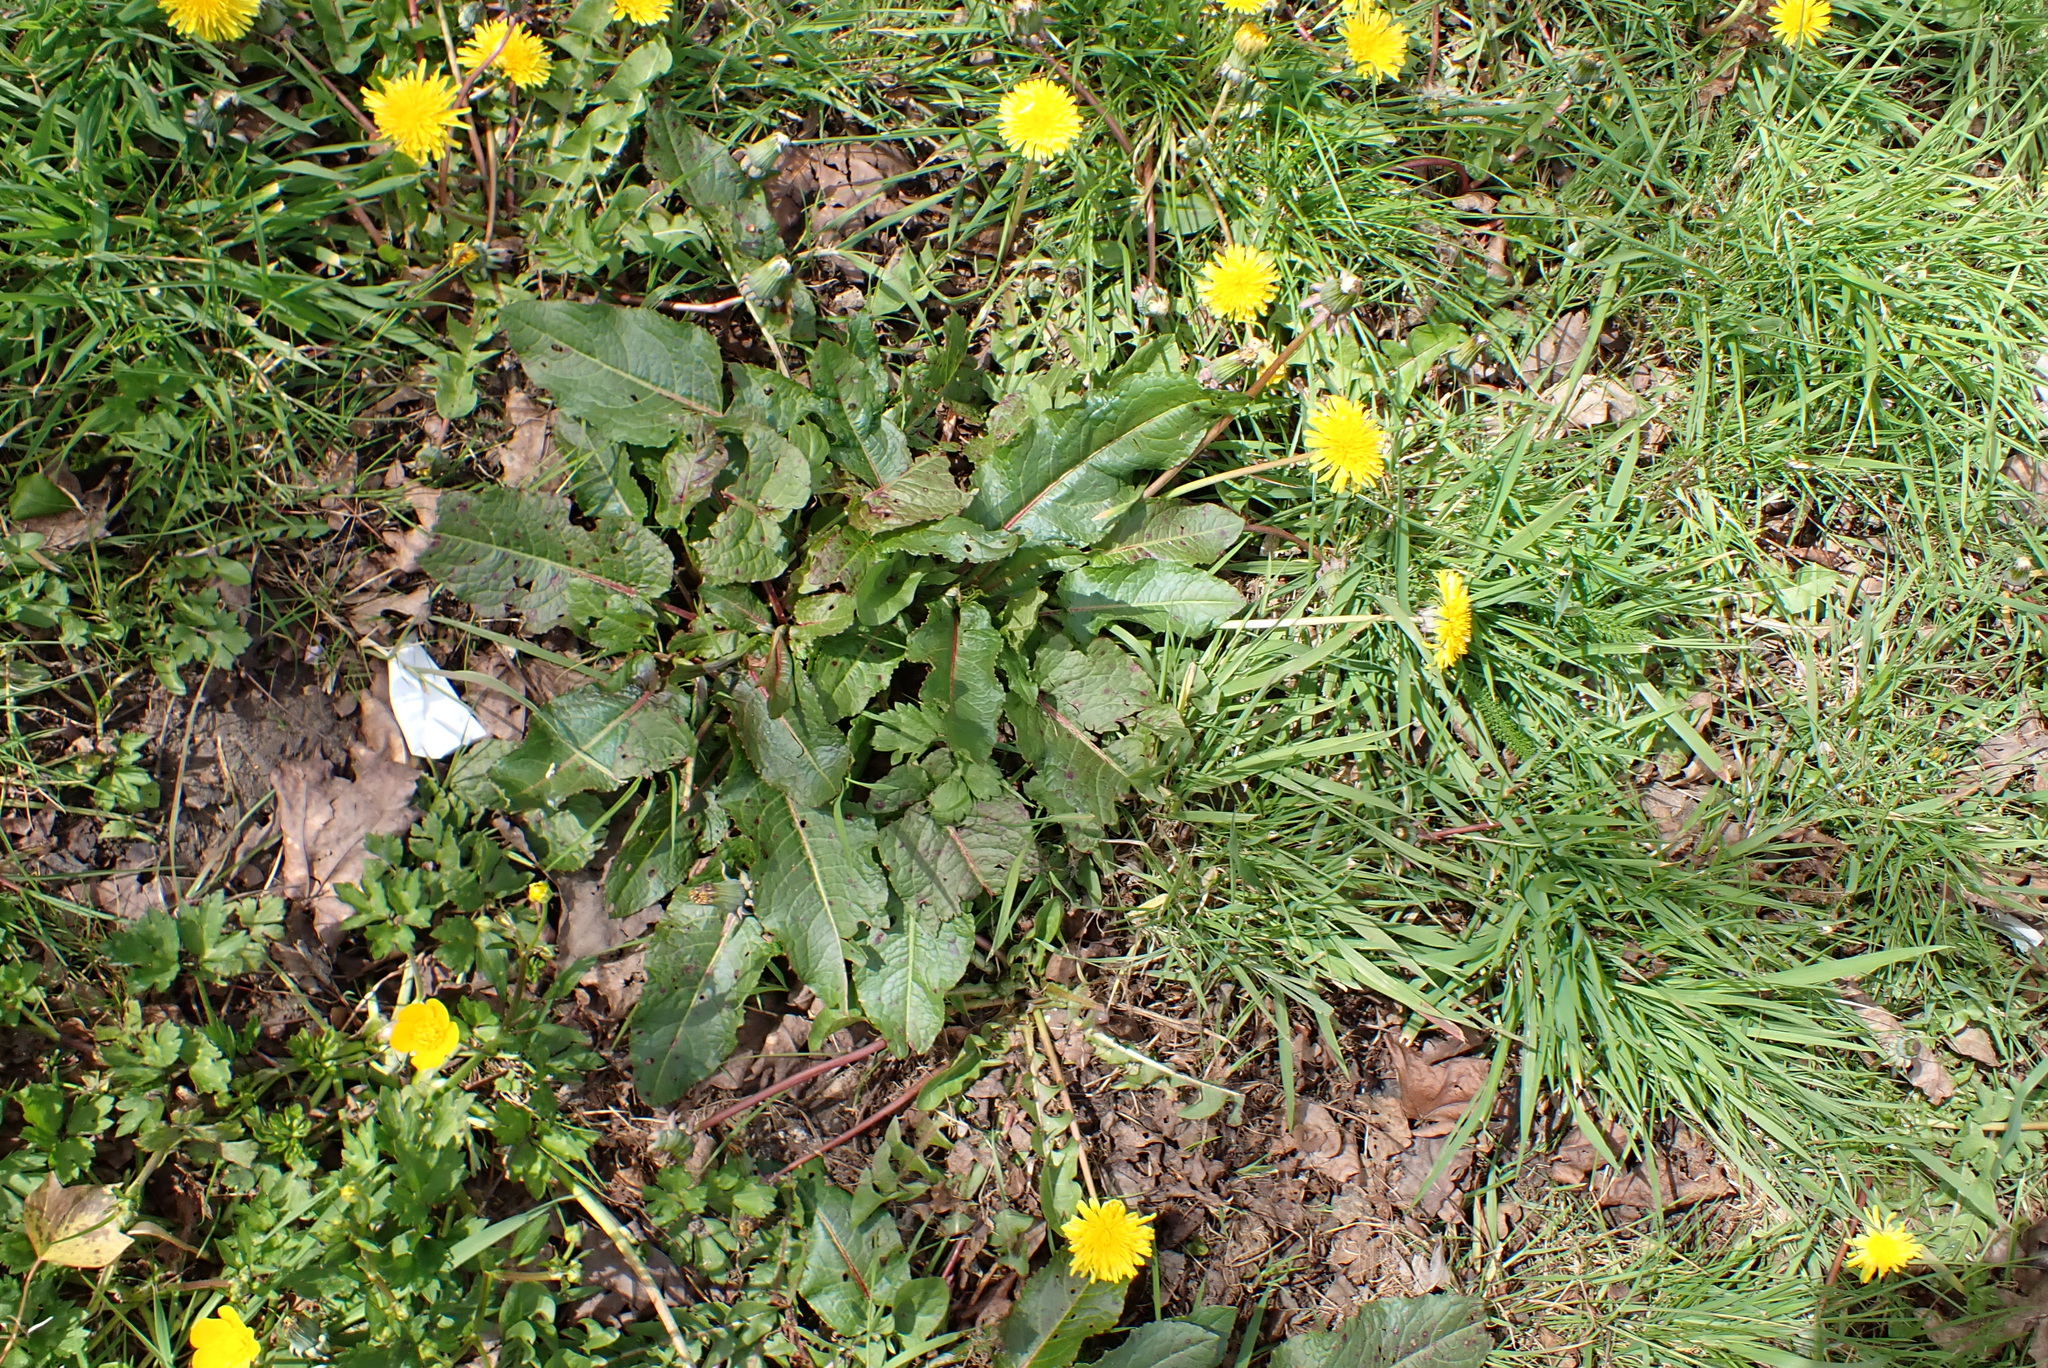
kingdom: Plantae
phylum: Tracheophyta
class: Magnoliopsida
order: Caryophyllales
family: Polygonaceae
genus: Rumex
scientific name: Rumex obtusifolius
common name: Bitter dock
